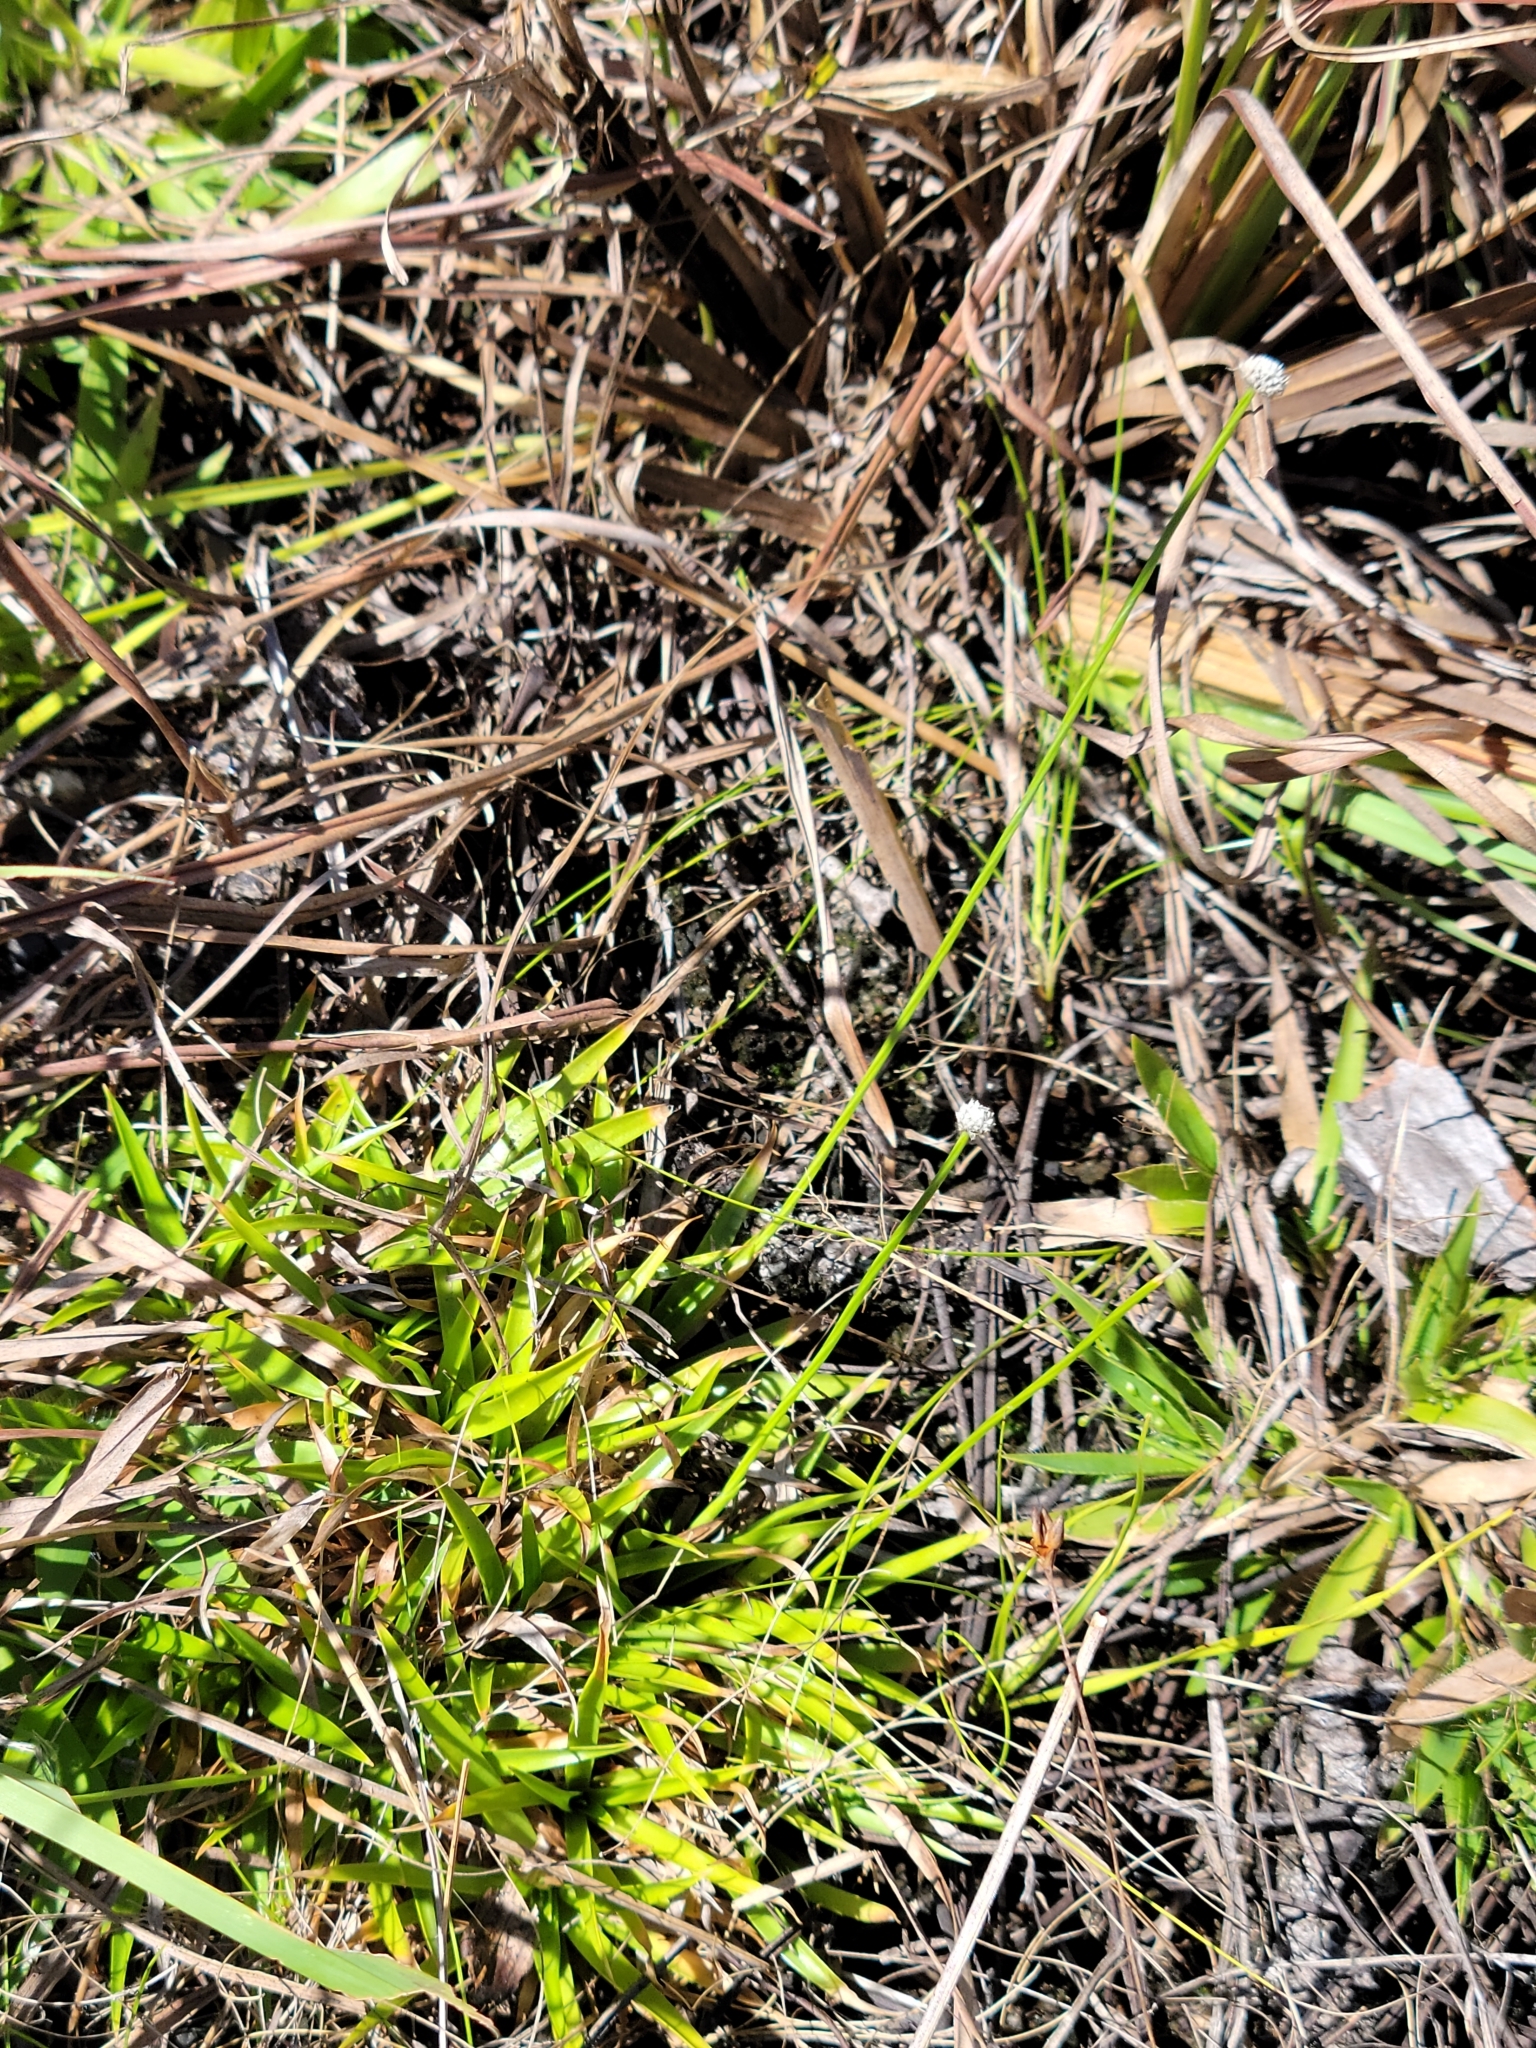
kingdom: Plantae
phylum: Tracheophyta
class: Liliopsida
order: Poales
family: Eriocaulaceae
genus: Paepalanthus
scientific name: Paepalanthus anceps
